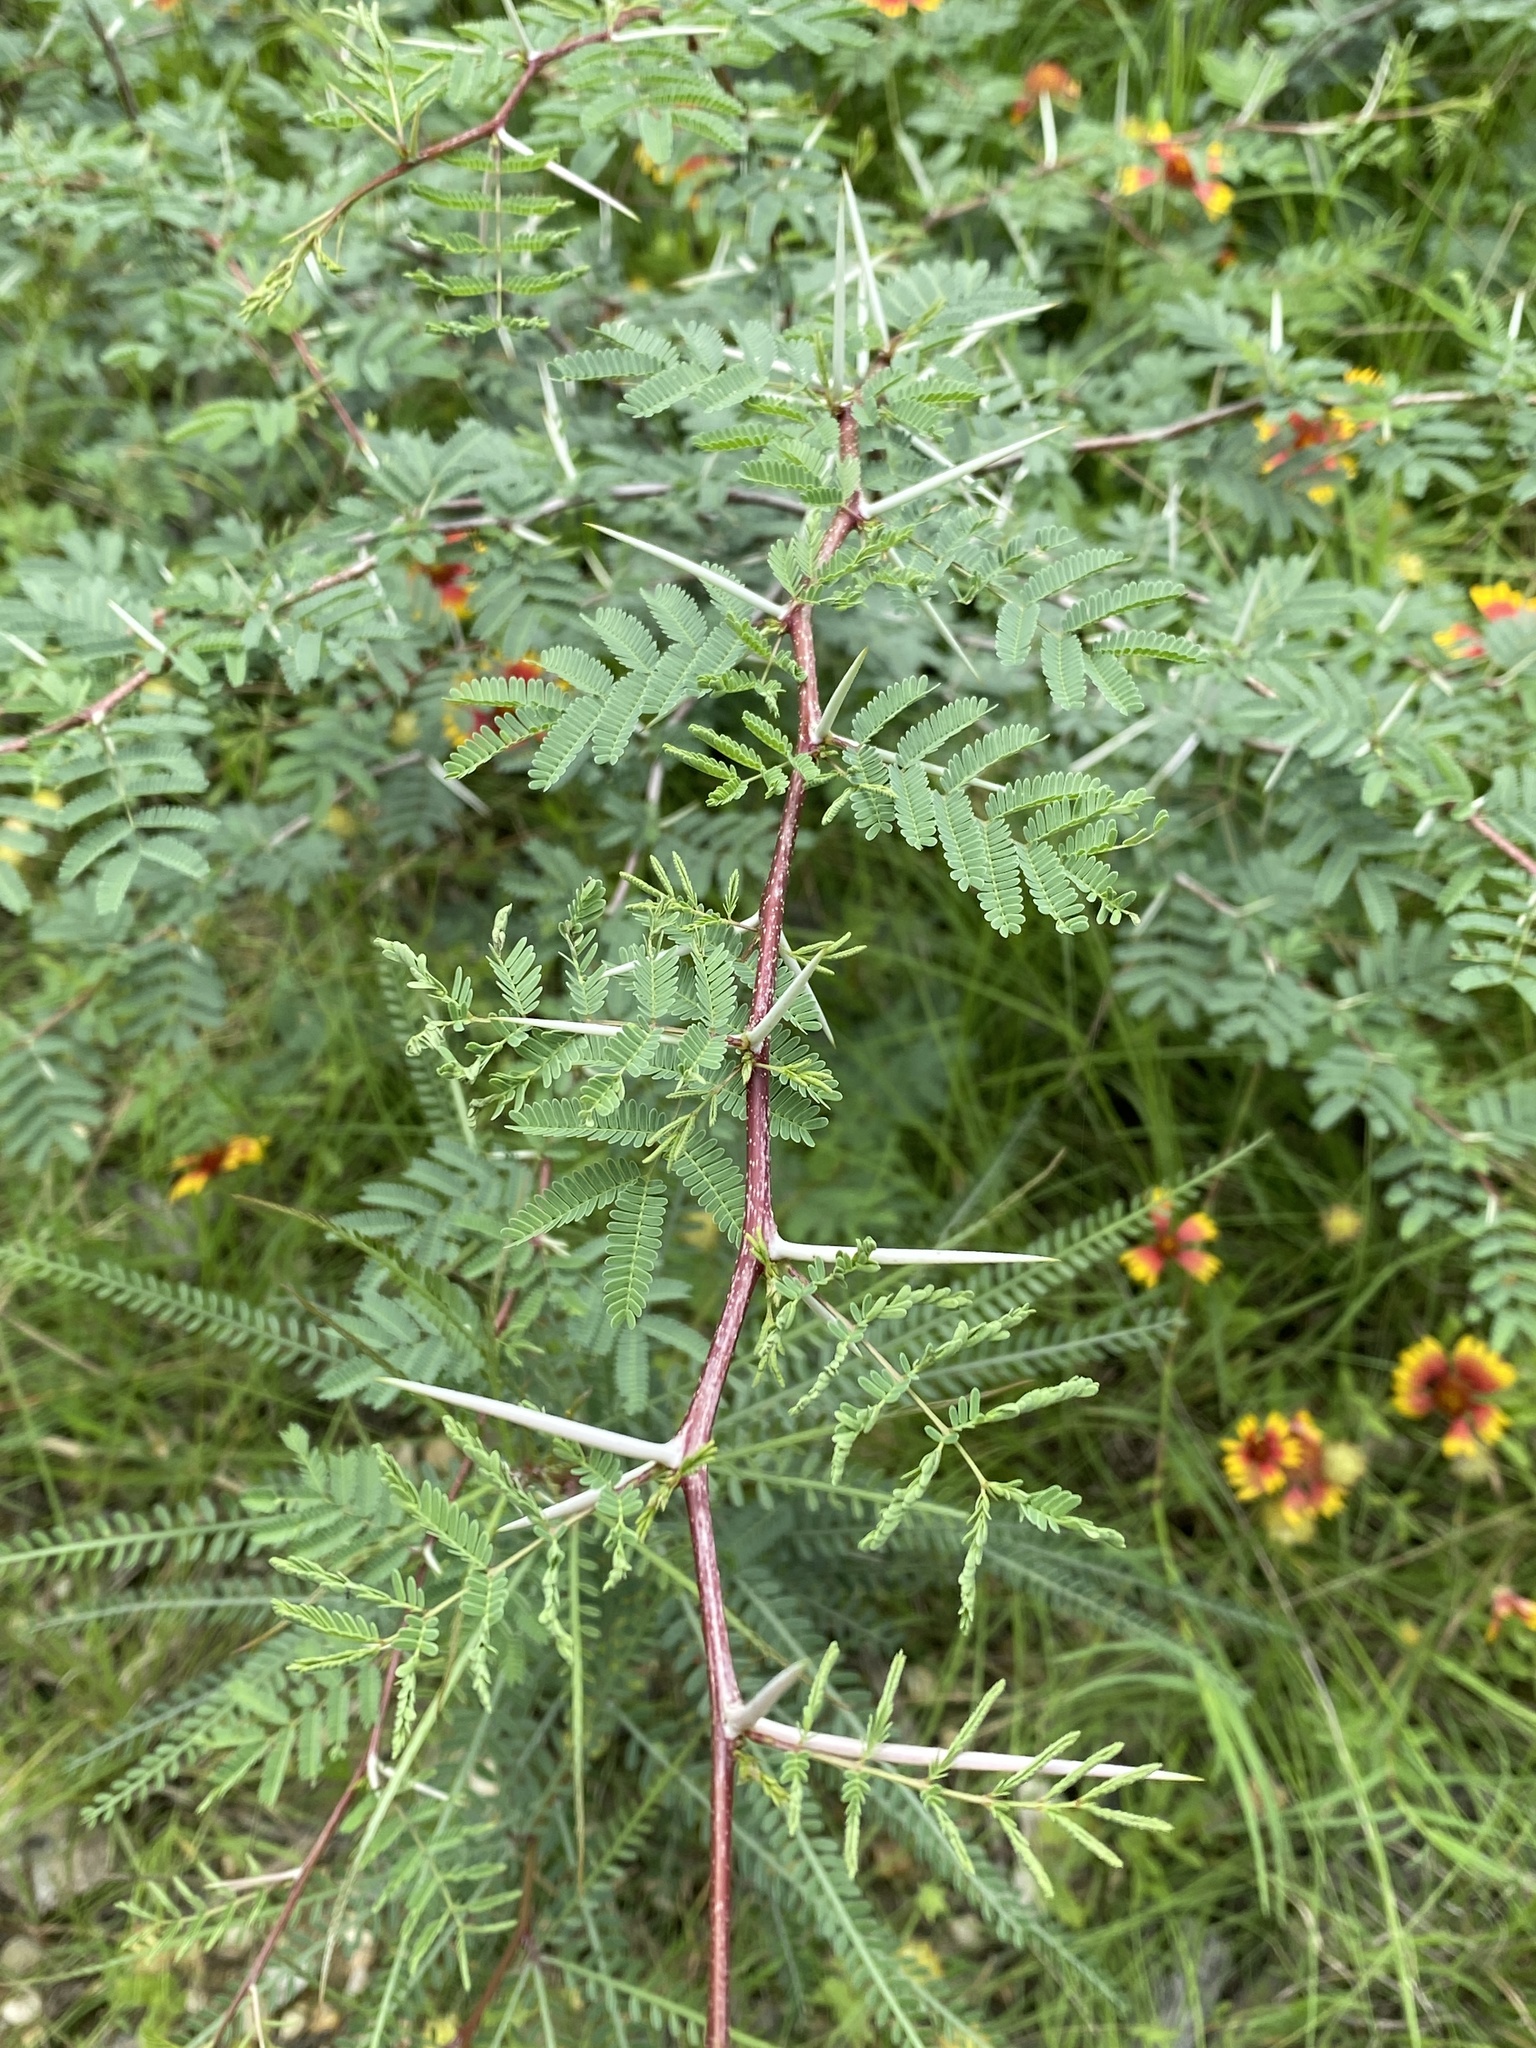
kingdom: Plantae
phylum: Tracheophyta
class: Magnoliopsida
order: Fabales
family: Fabaceae
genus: Vachellia
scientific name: Vachellia farnesiana
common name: Sweet acacia
